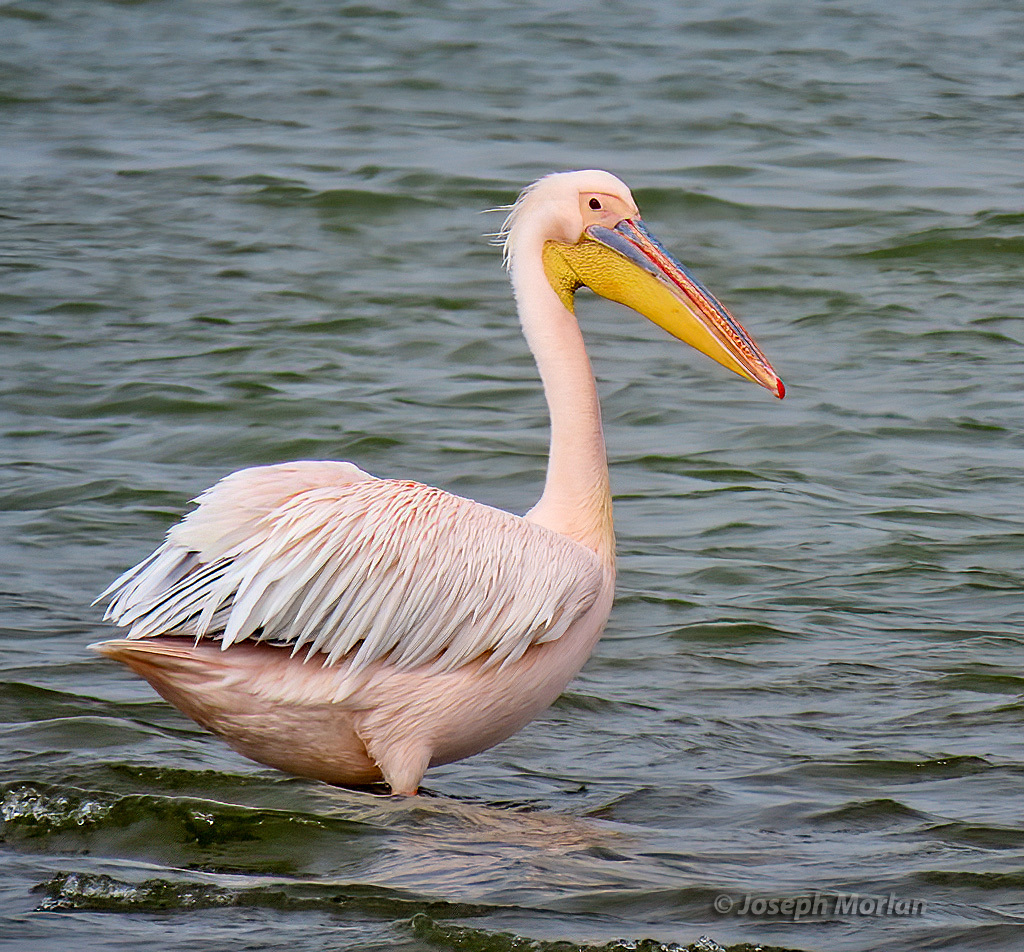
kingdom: Animalia
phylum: Chordata
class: Aves
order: Pelecaniformes
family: Pelecanidae
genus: Pelecanus
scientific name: Pelecanus onocrotalus
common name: Great white pelican
